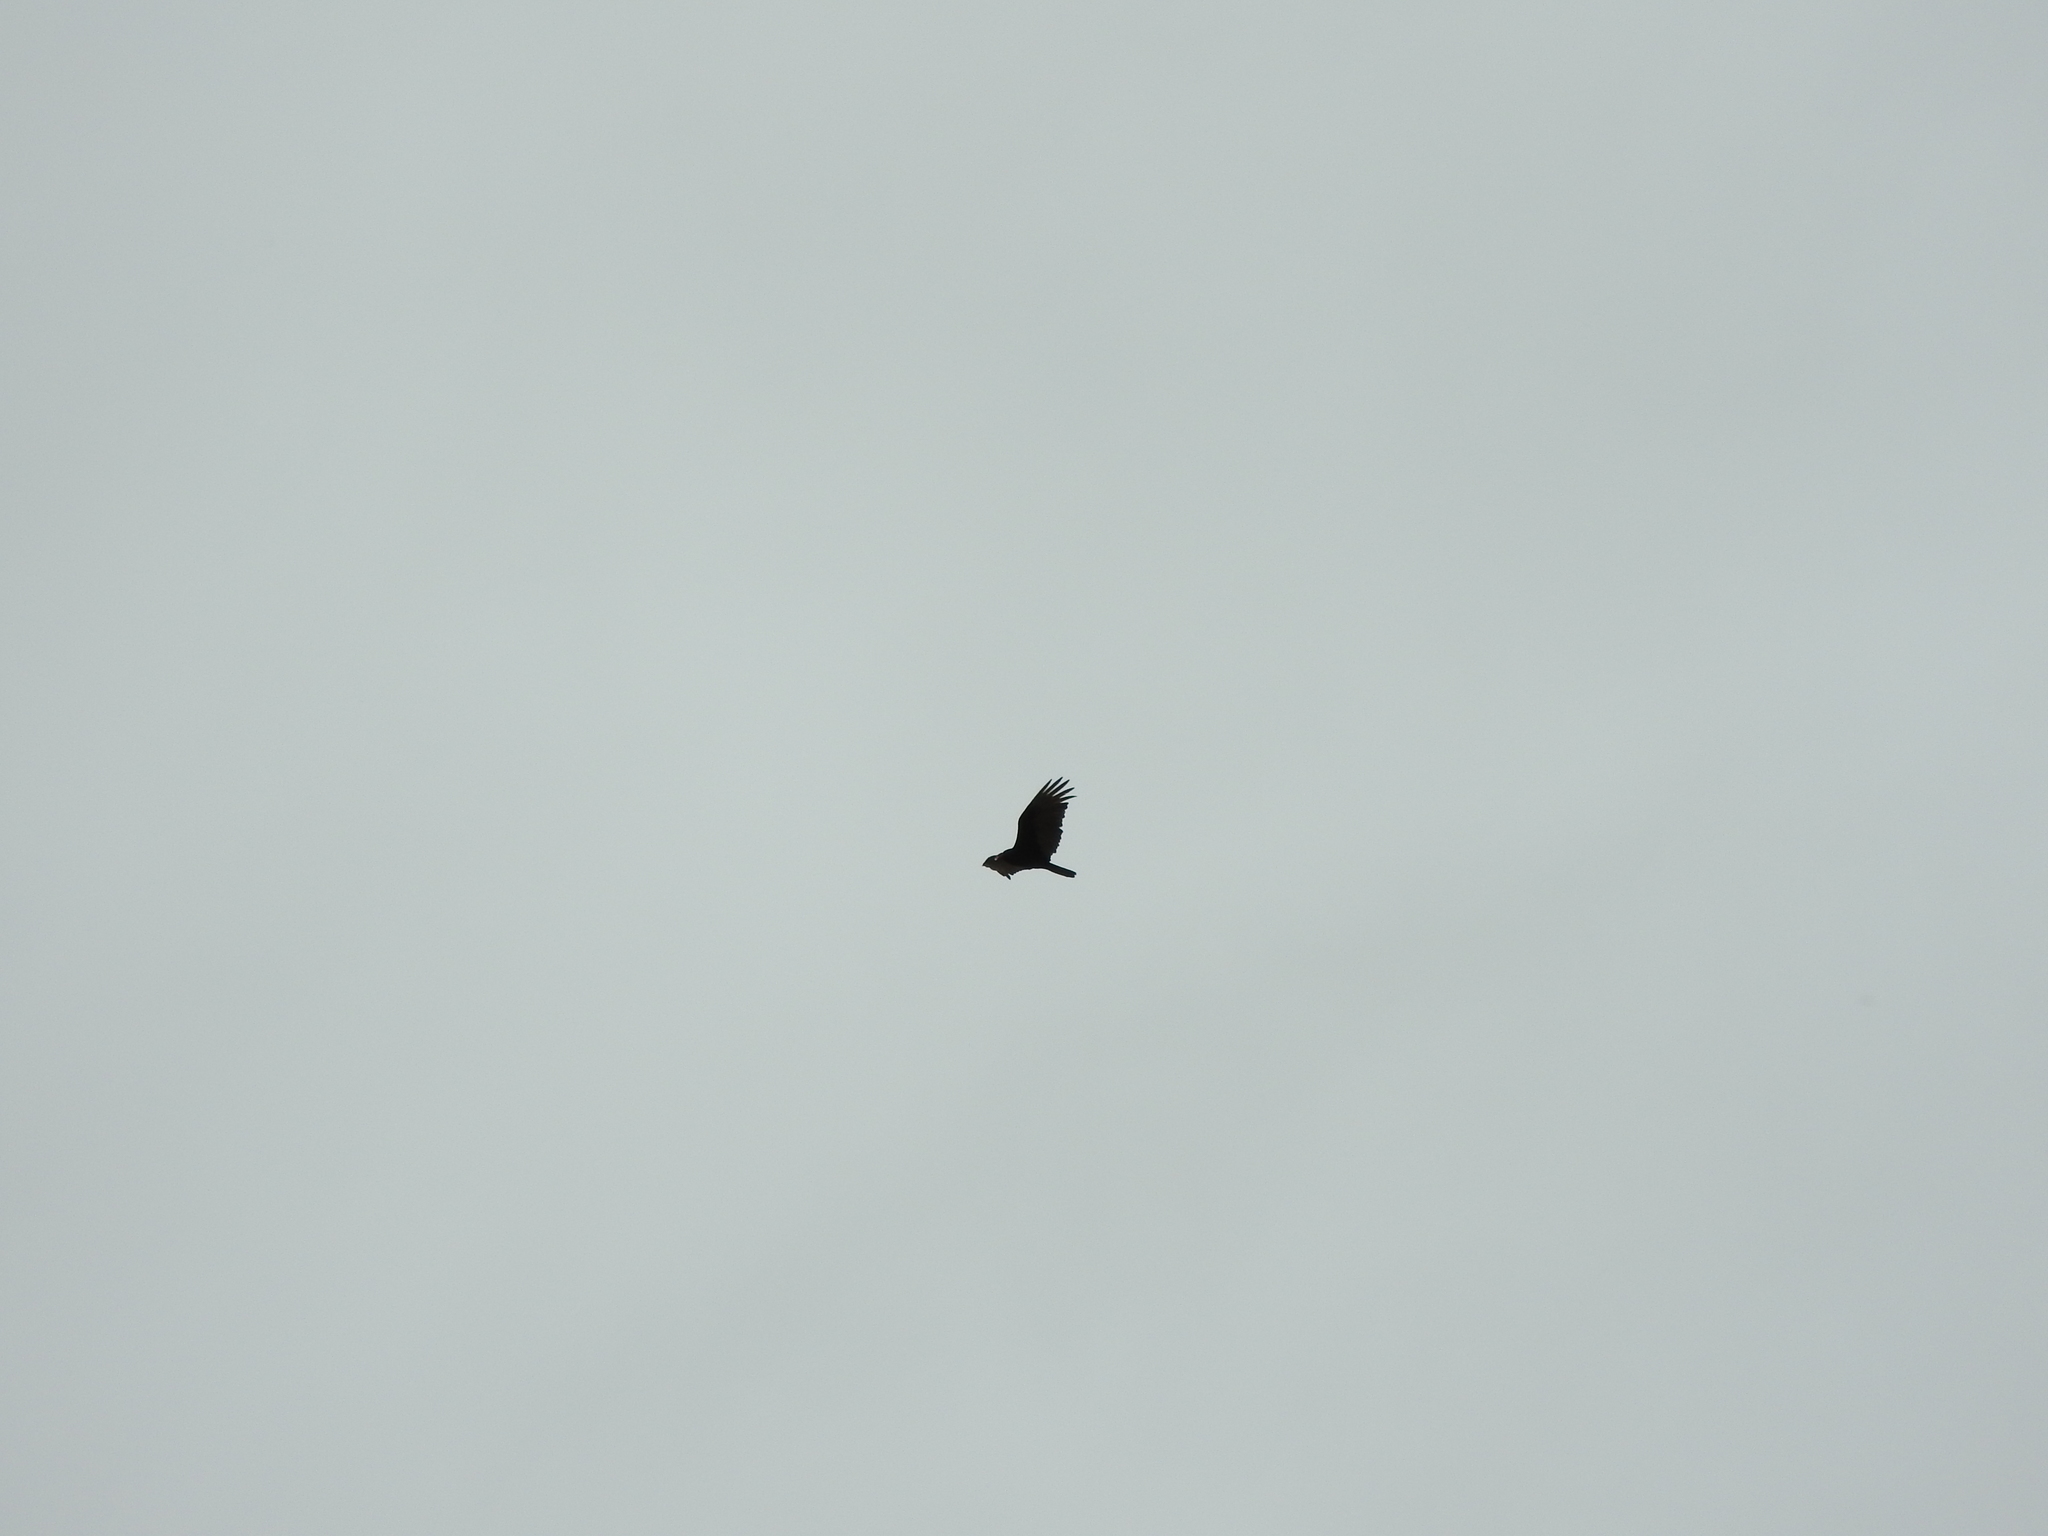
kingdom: Animalia
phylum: Chordata
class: Aves
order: Accipitriformes
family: Cathartidae
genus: Cathartes
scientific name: Cathartes aura
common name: Turkey vulture
